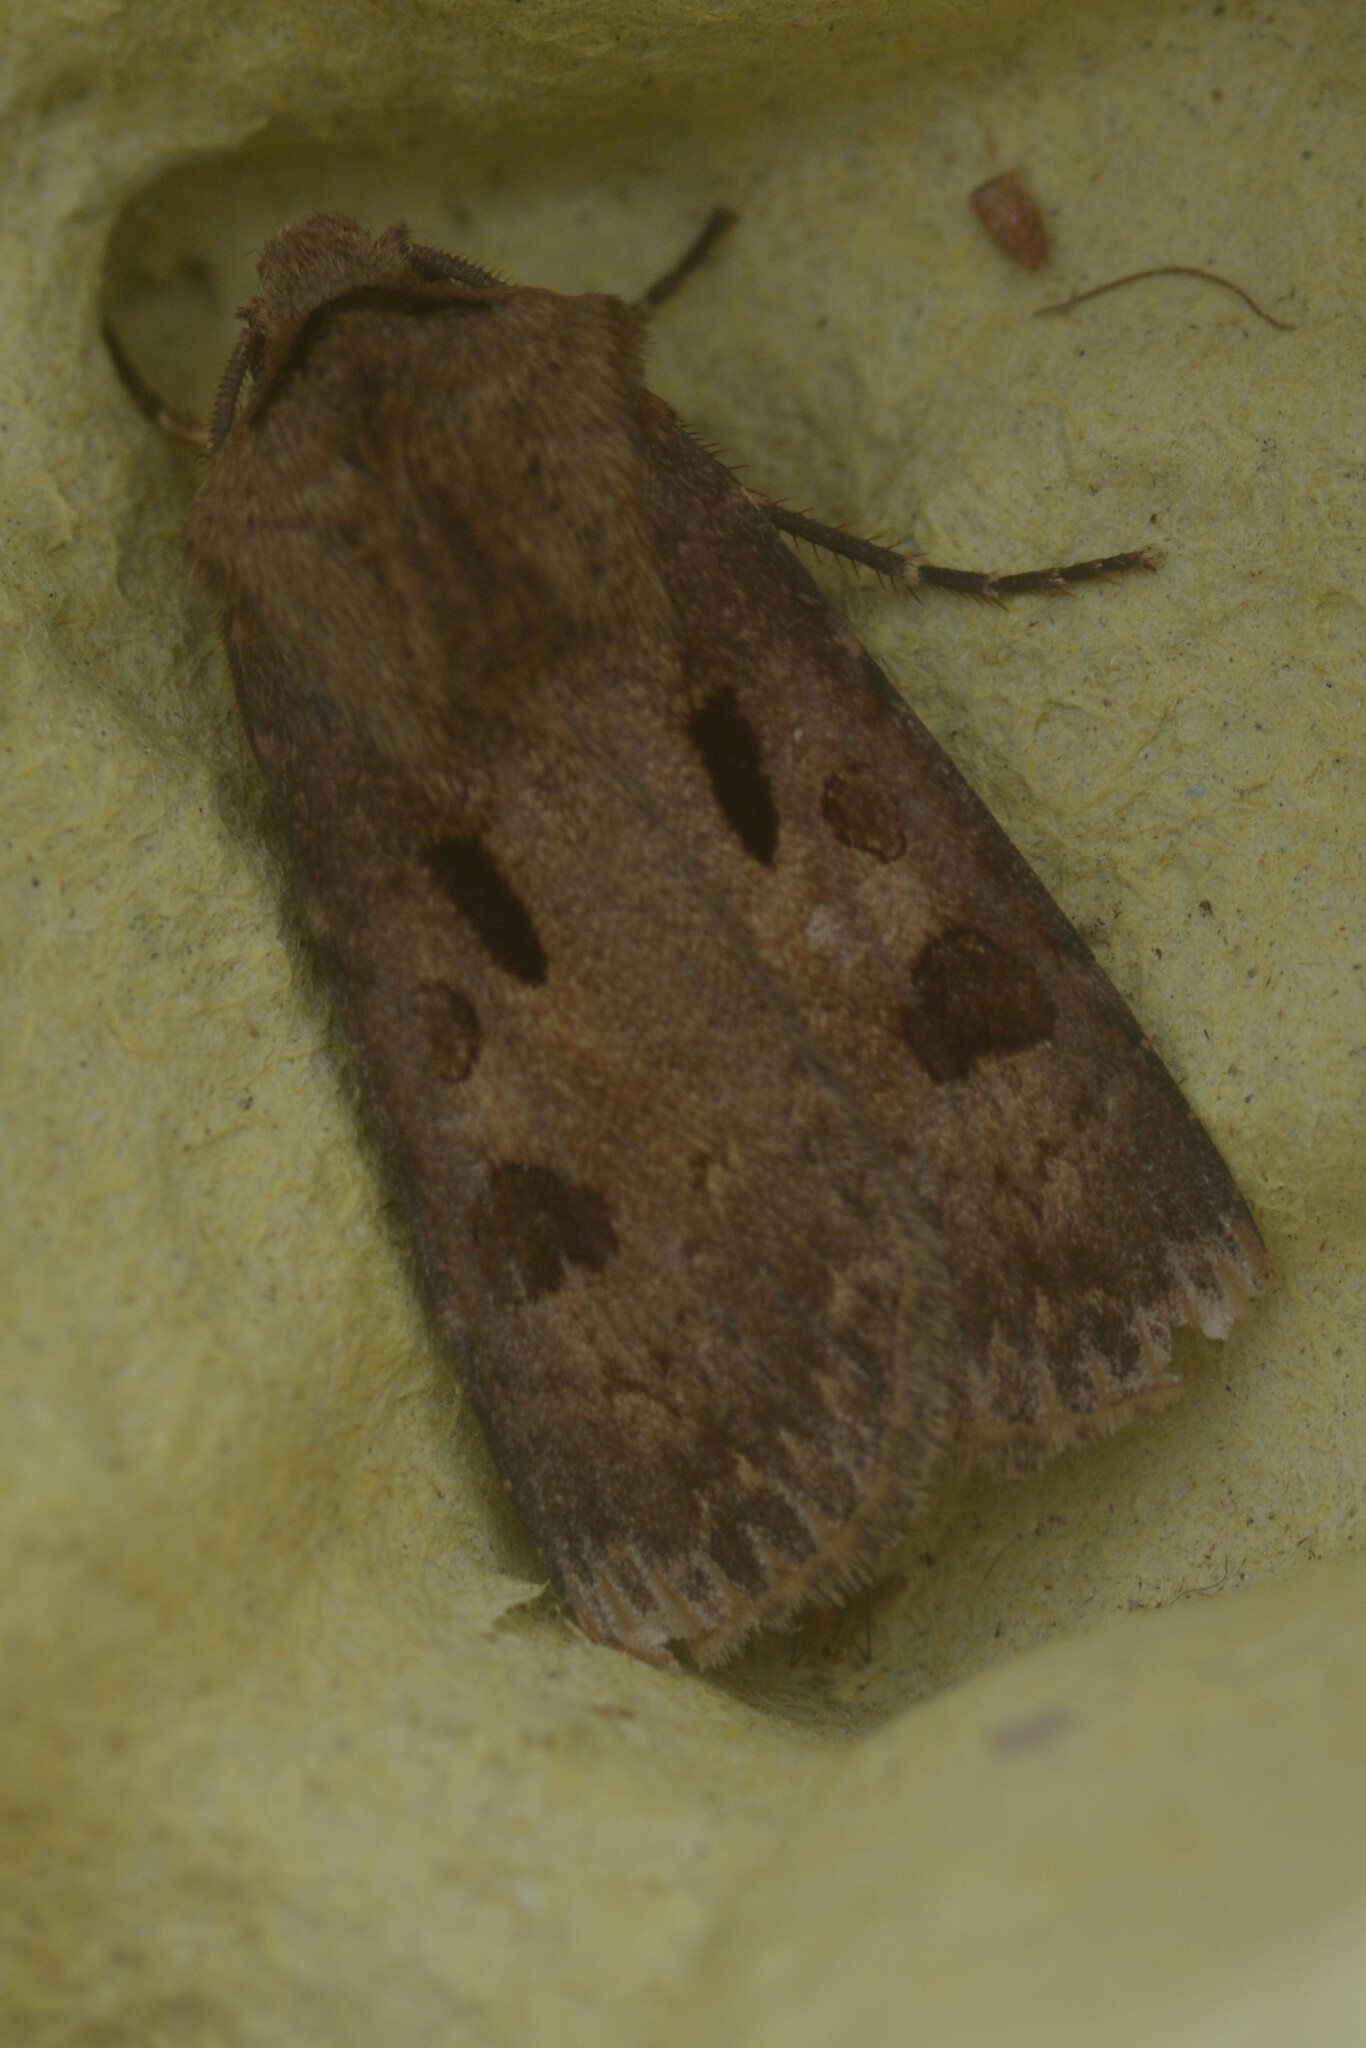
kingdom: Animalia
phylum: Arthropoda
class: Insecta
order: Lepidoptera
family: Noctuidae
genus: Agrotis
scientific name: Agrotis exclamationis
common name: Heart and dart
